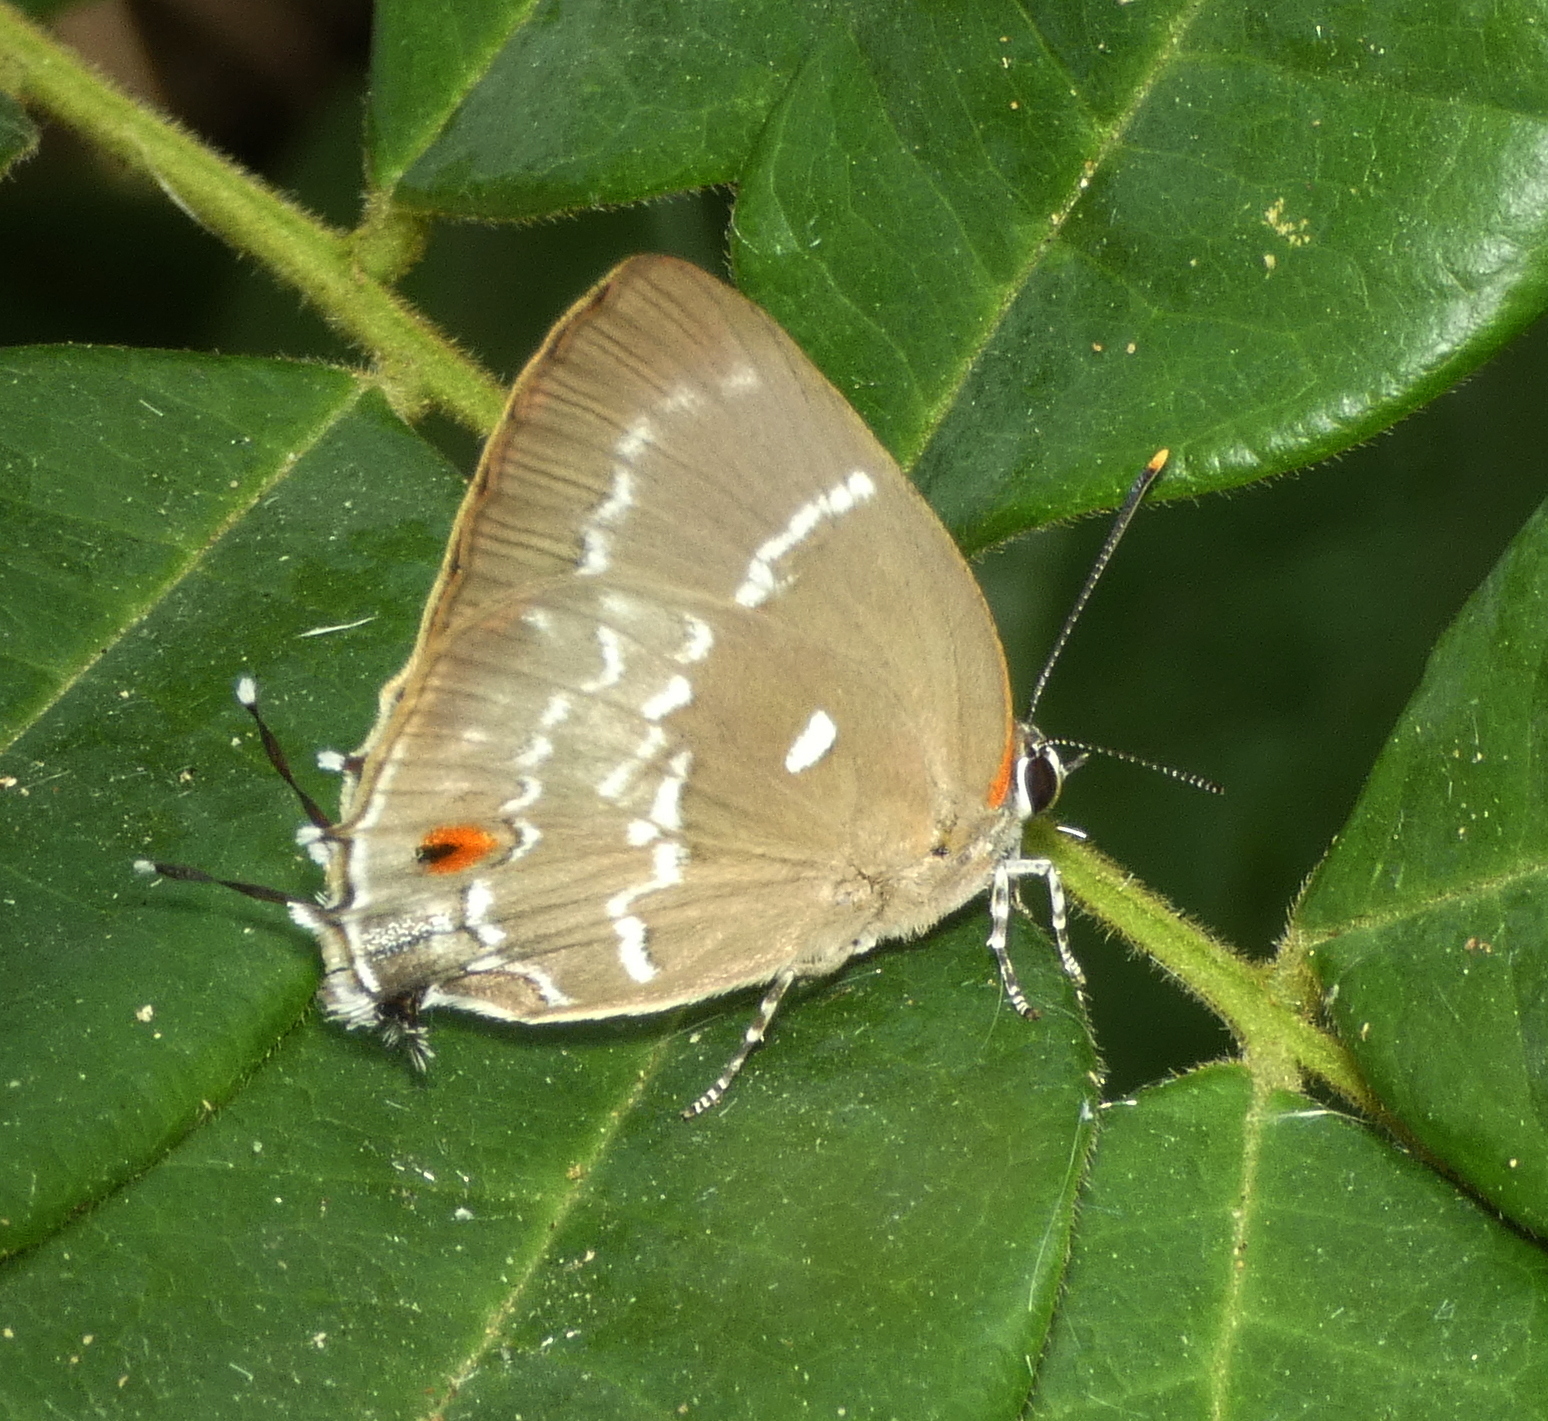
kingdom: Animalia
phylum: Arthropoda
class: Insecta
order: Lepidoptera
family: Lycaenidae
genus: Thecla
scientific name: Thecla phoenissa
